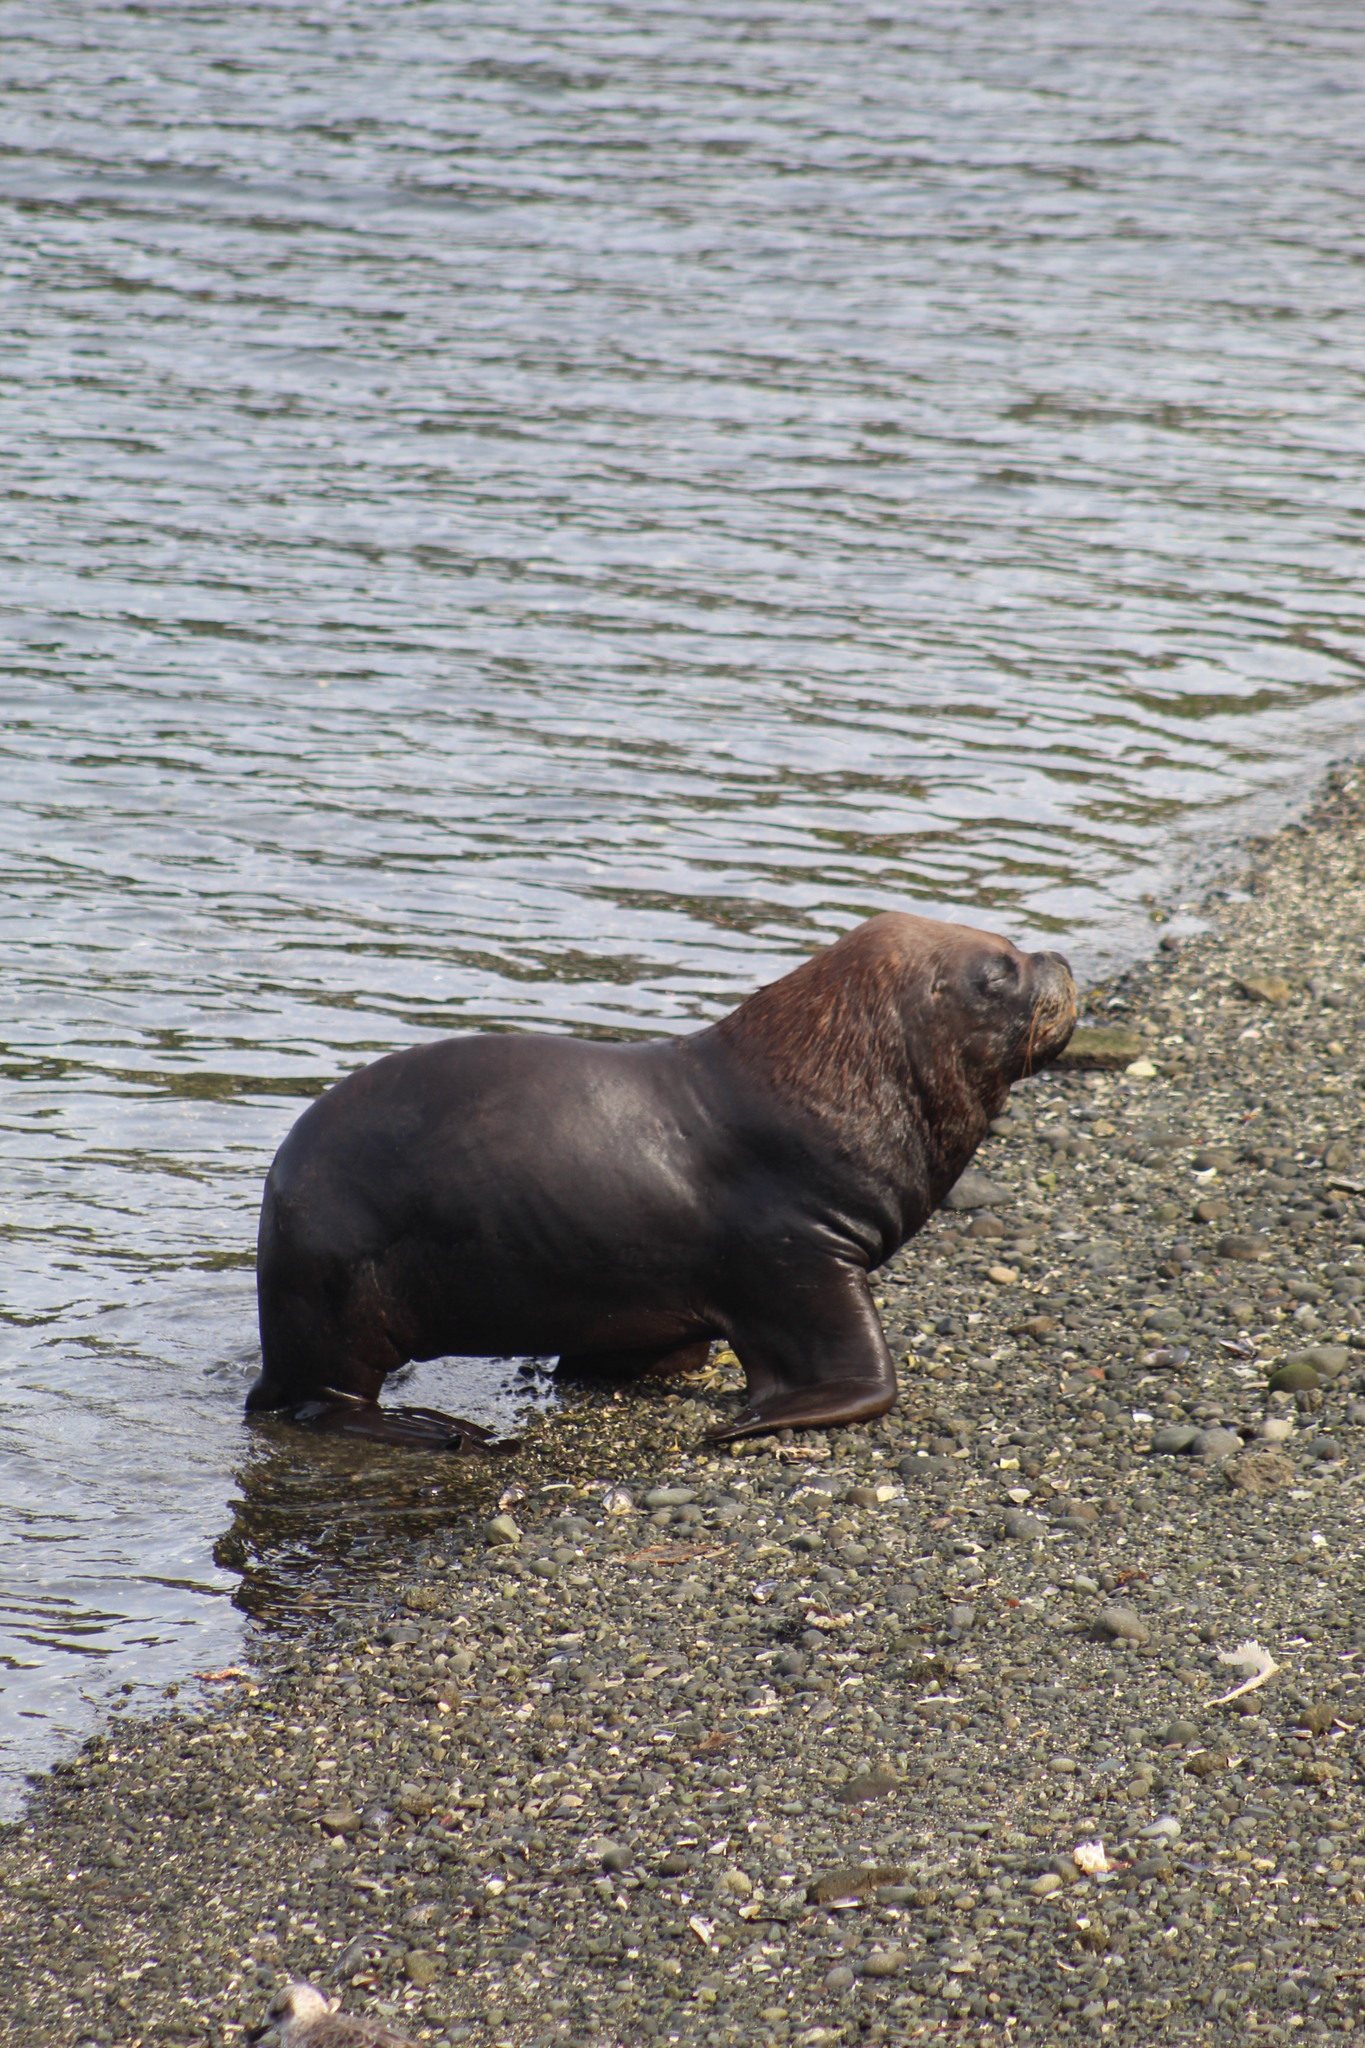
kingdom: Animalia
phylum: Chordata
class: Mammalia
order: Carnivora
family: Otariidae
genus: Otaria
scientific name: Otaria byronia
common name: South american sea lion
